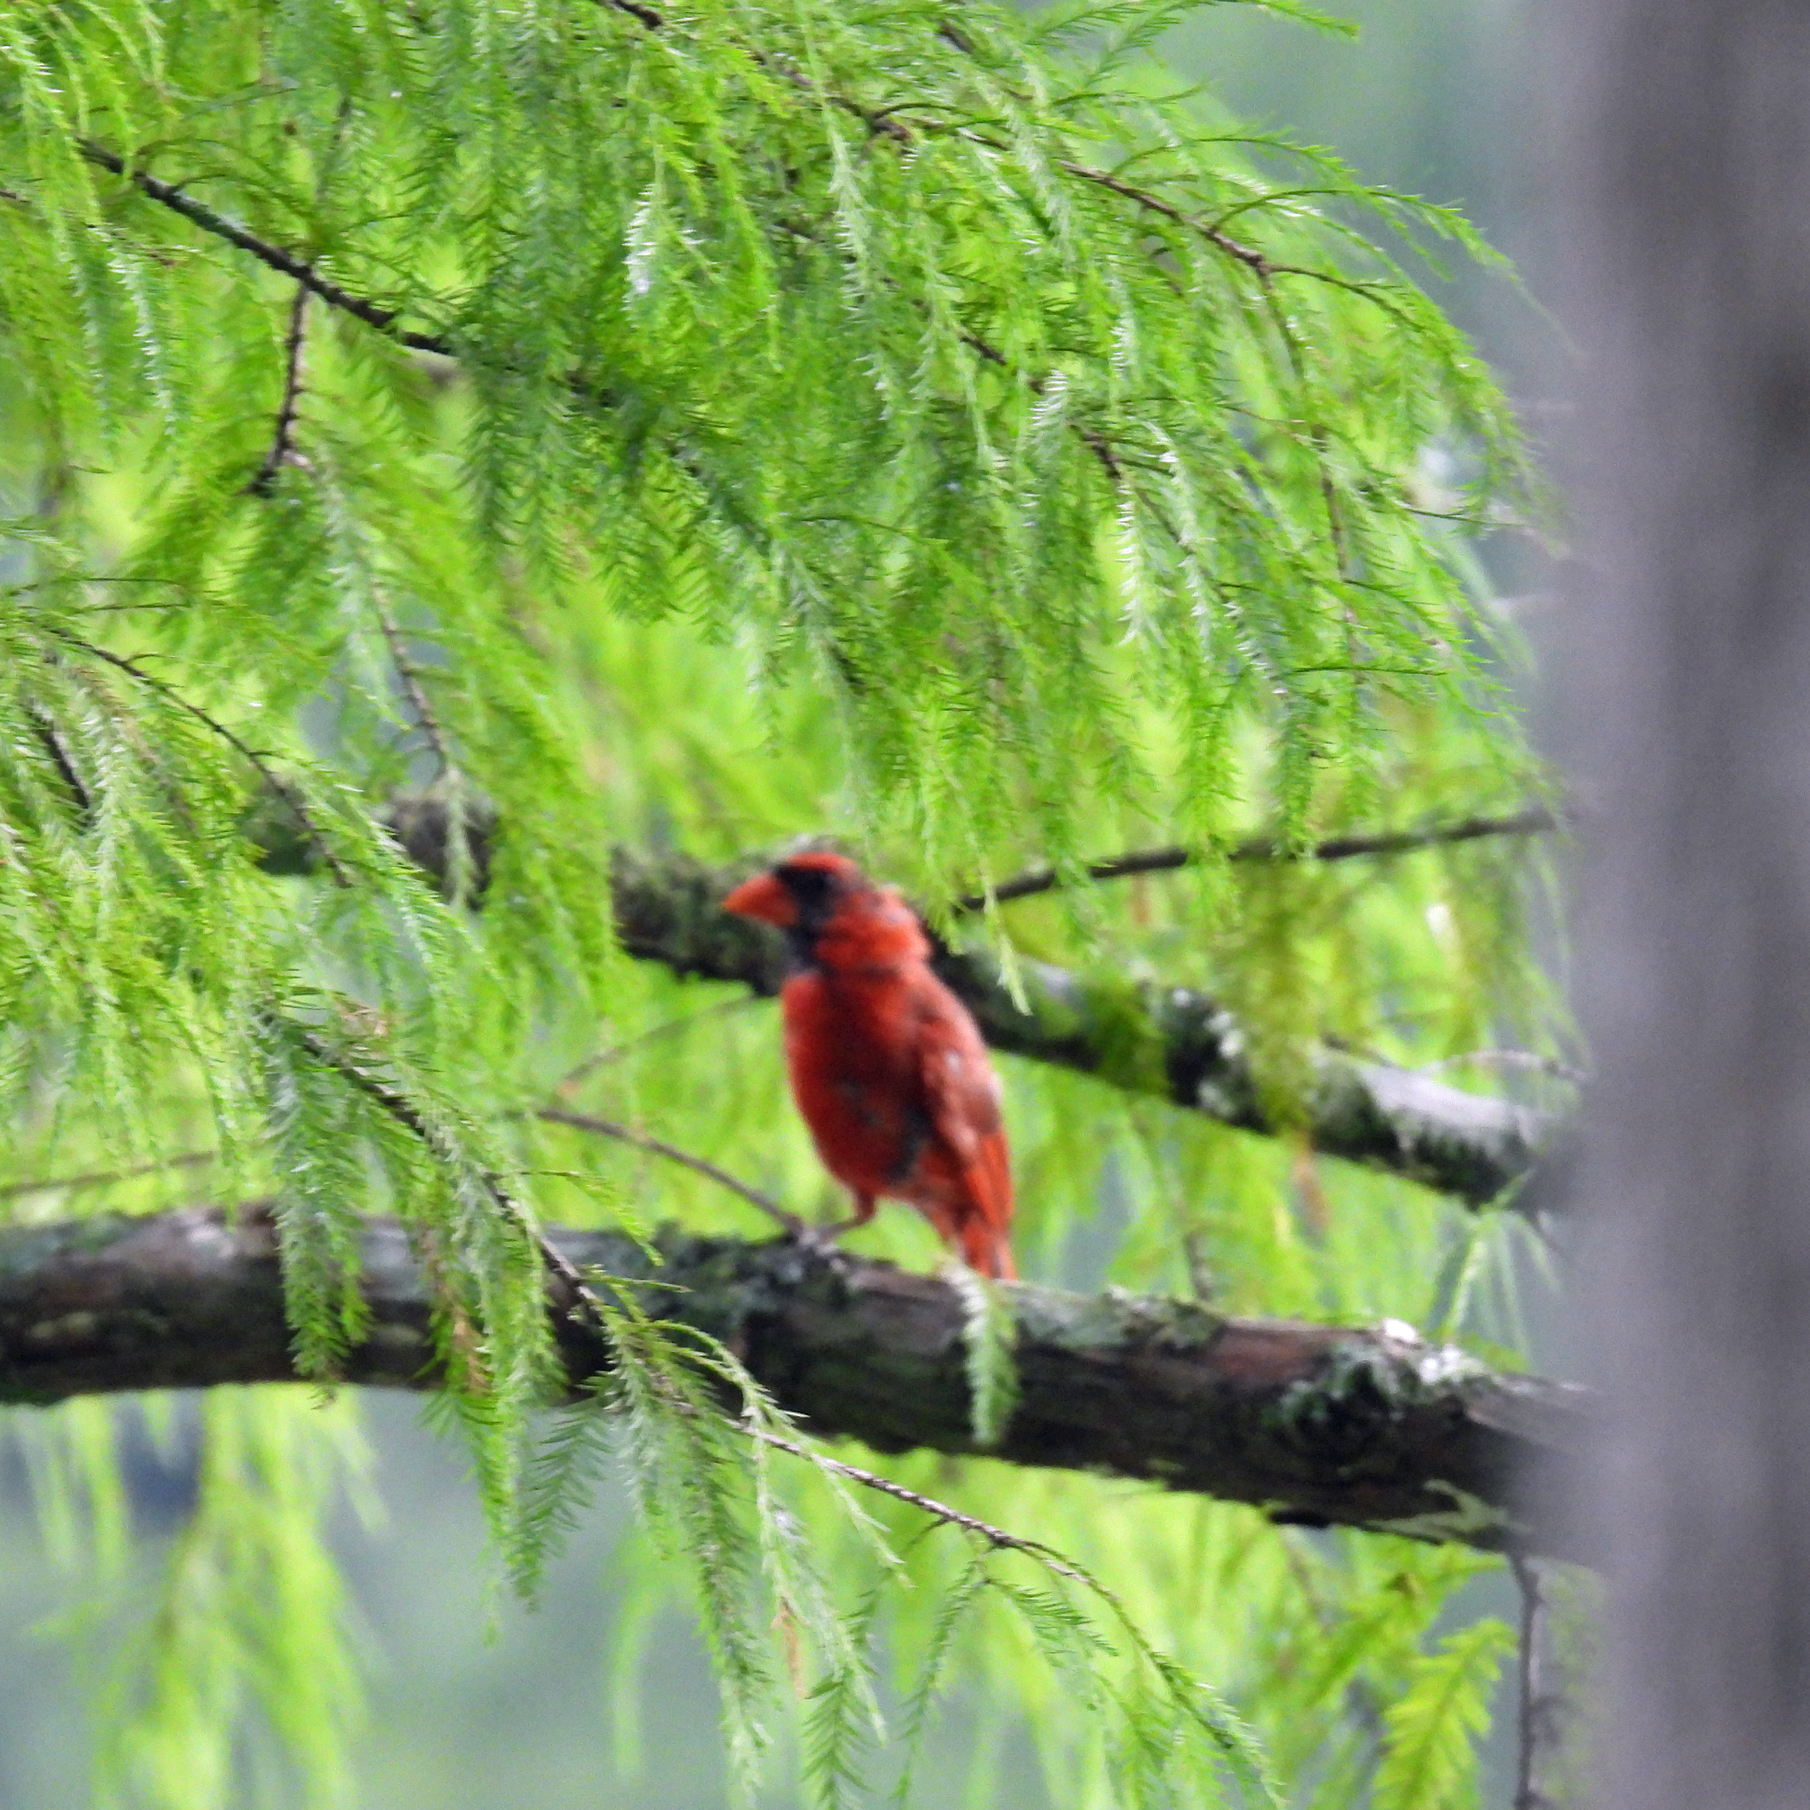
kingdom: Animalia
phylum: Chordata
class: Aves
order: Passeriformes
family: Cardinalidae
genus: Cardinalis
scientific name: Cardinalis cardinalis
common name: Northern cardinal
